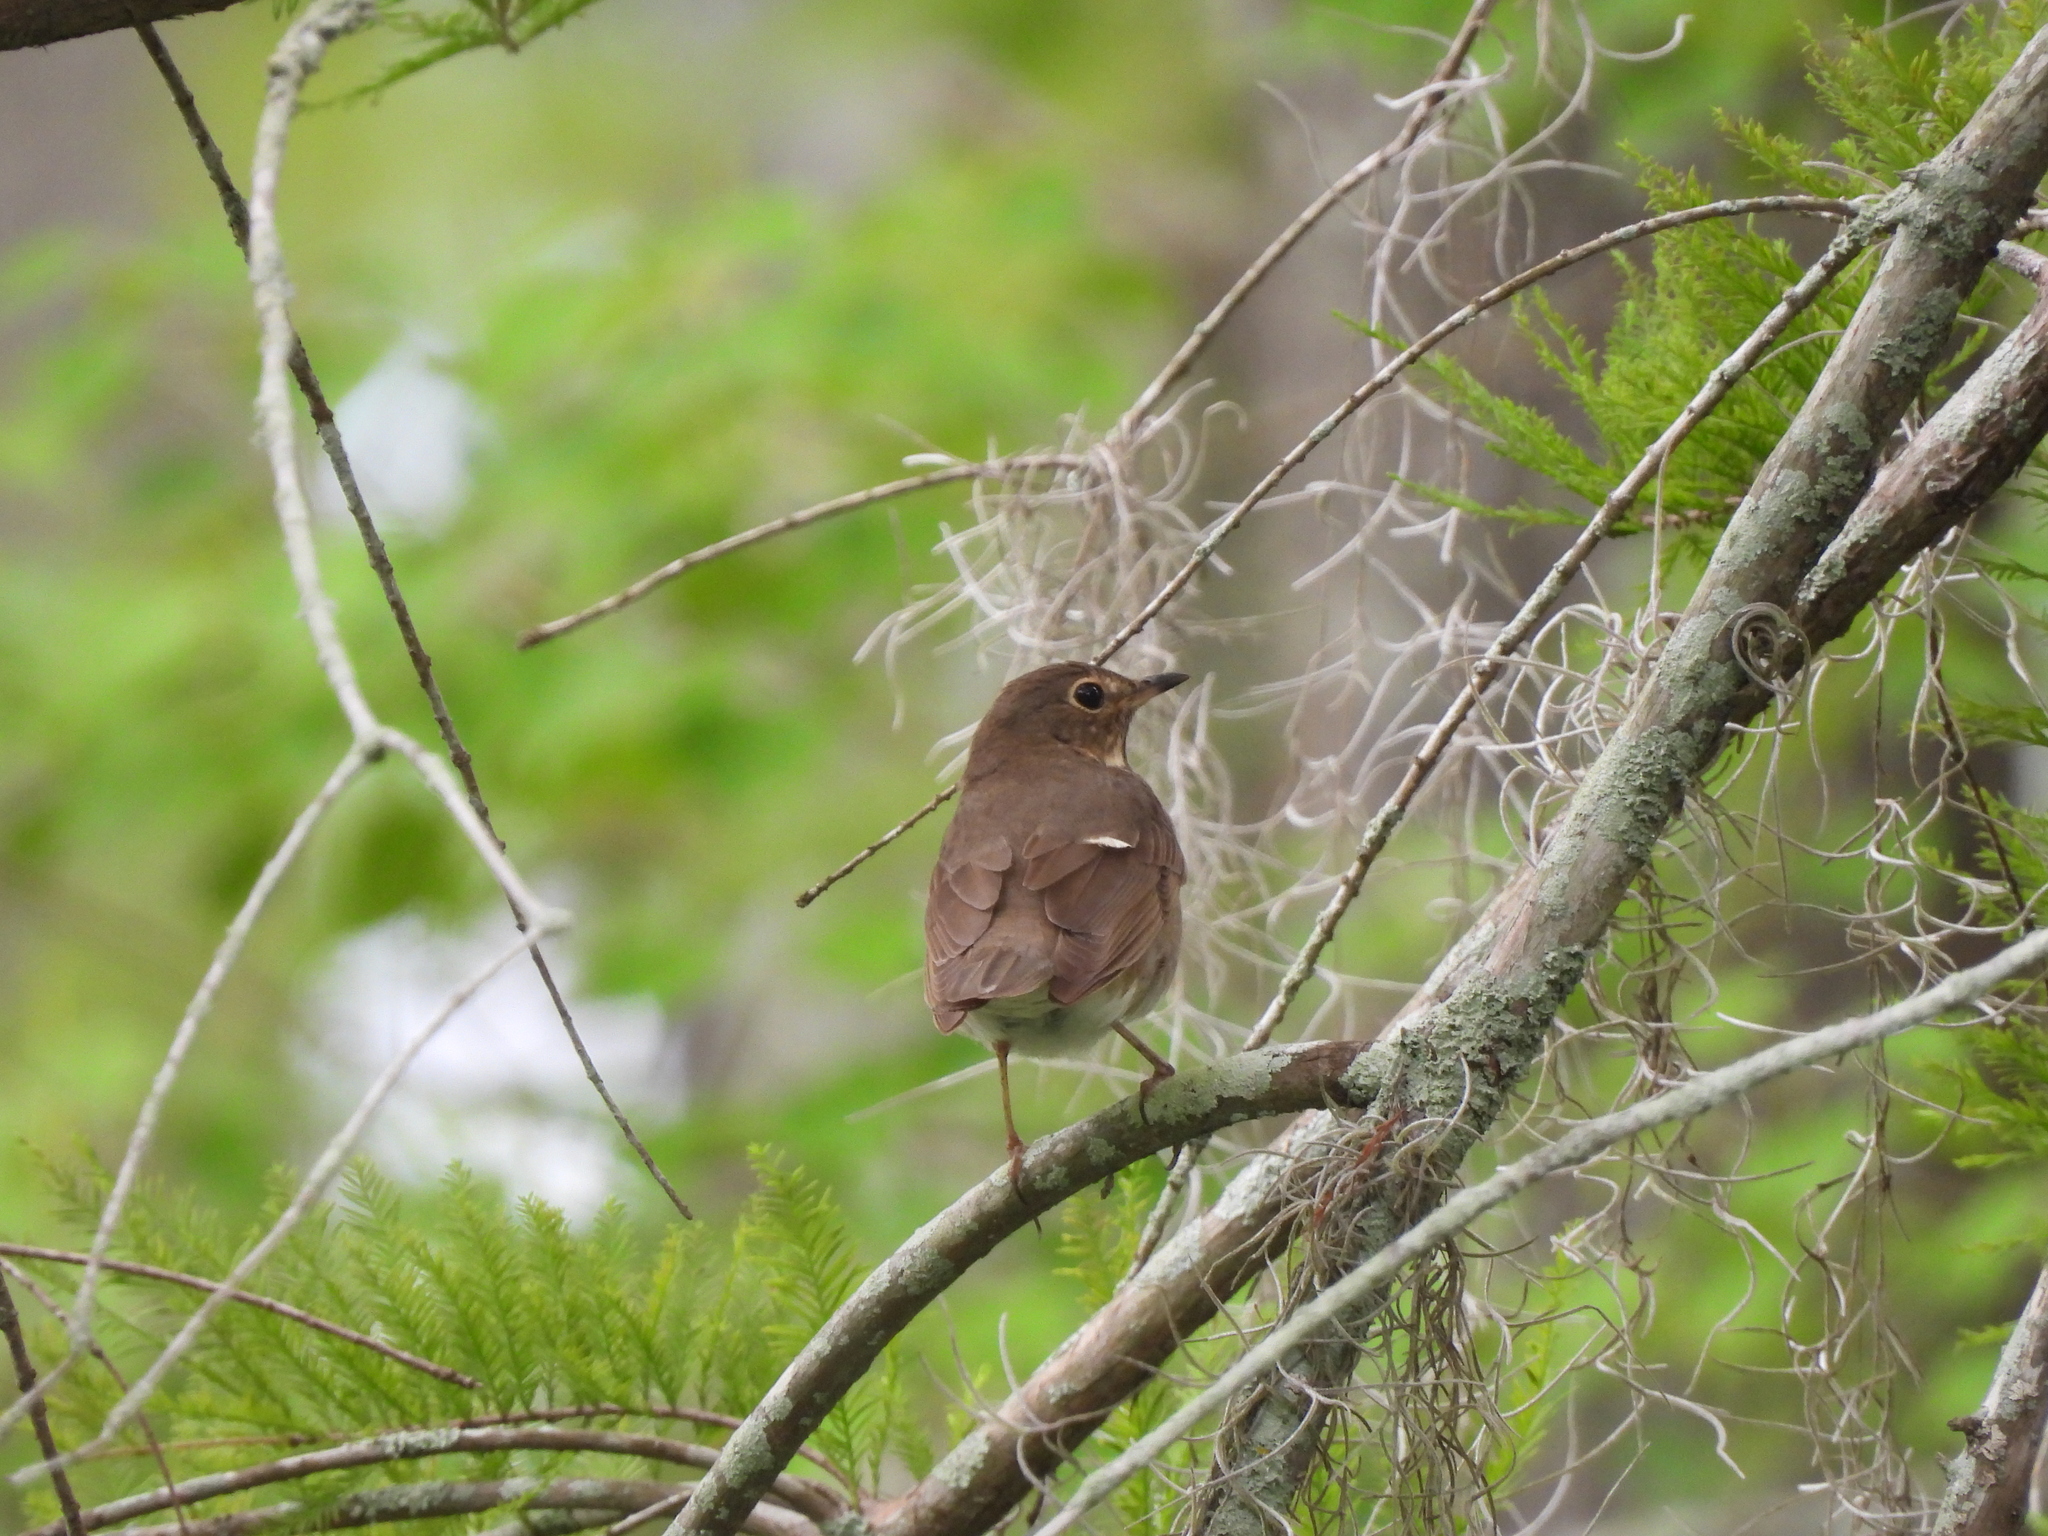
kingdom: Animalia
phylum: Chordata
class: Aves
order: Passeriformes
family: Turdidae
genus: Catharus
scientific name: Catharus ustulatus
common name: Swainson's thrush
